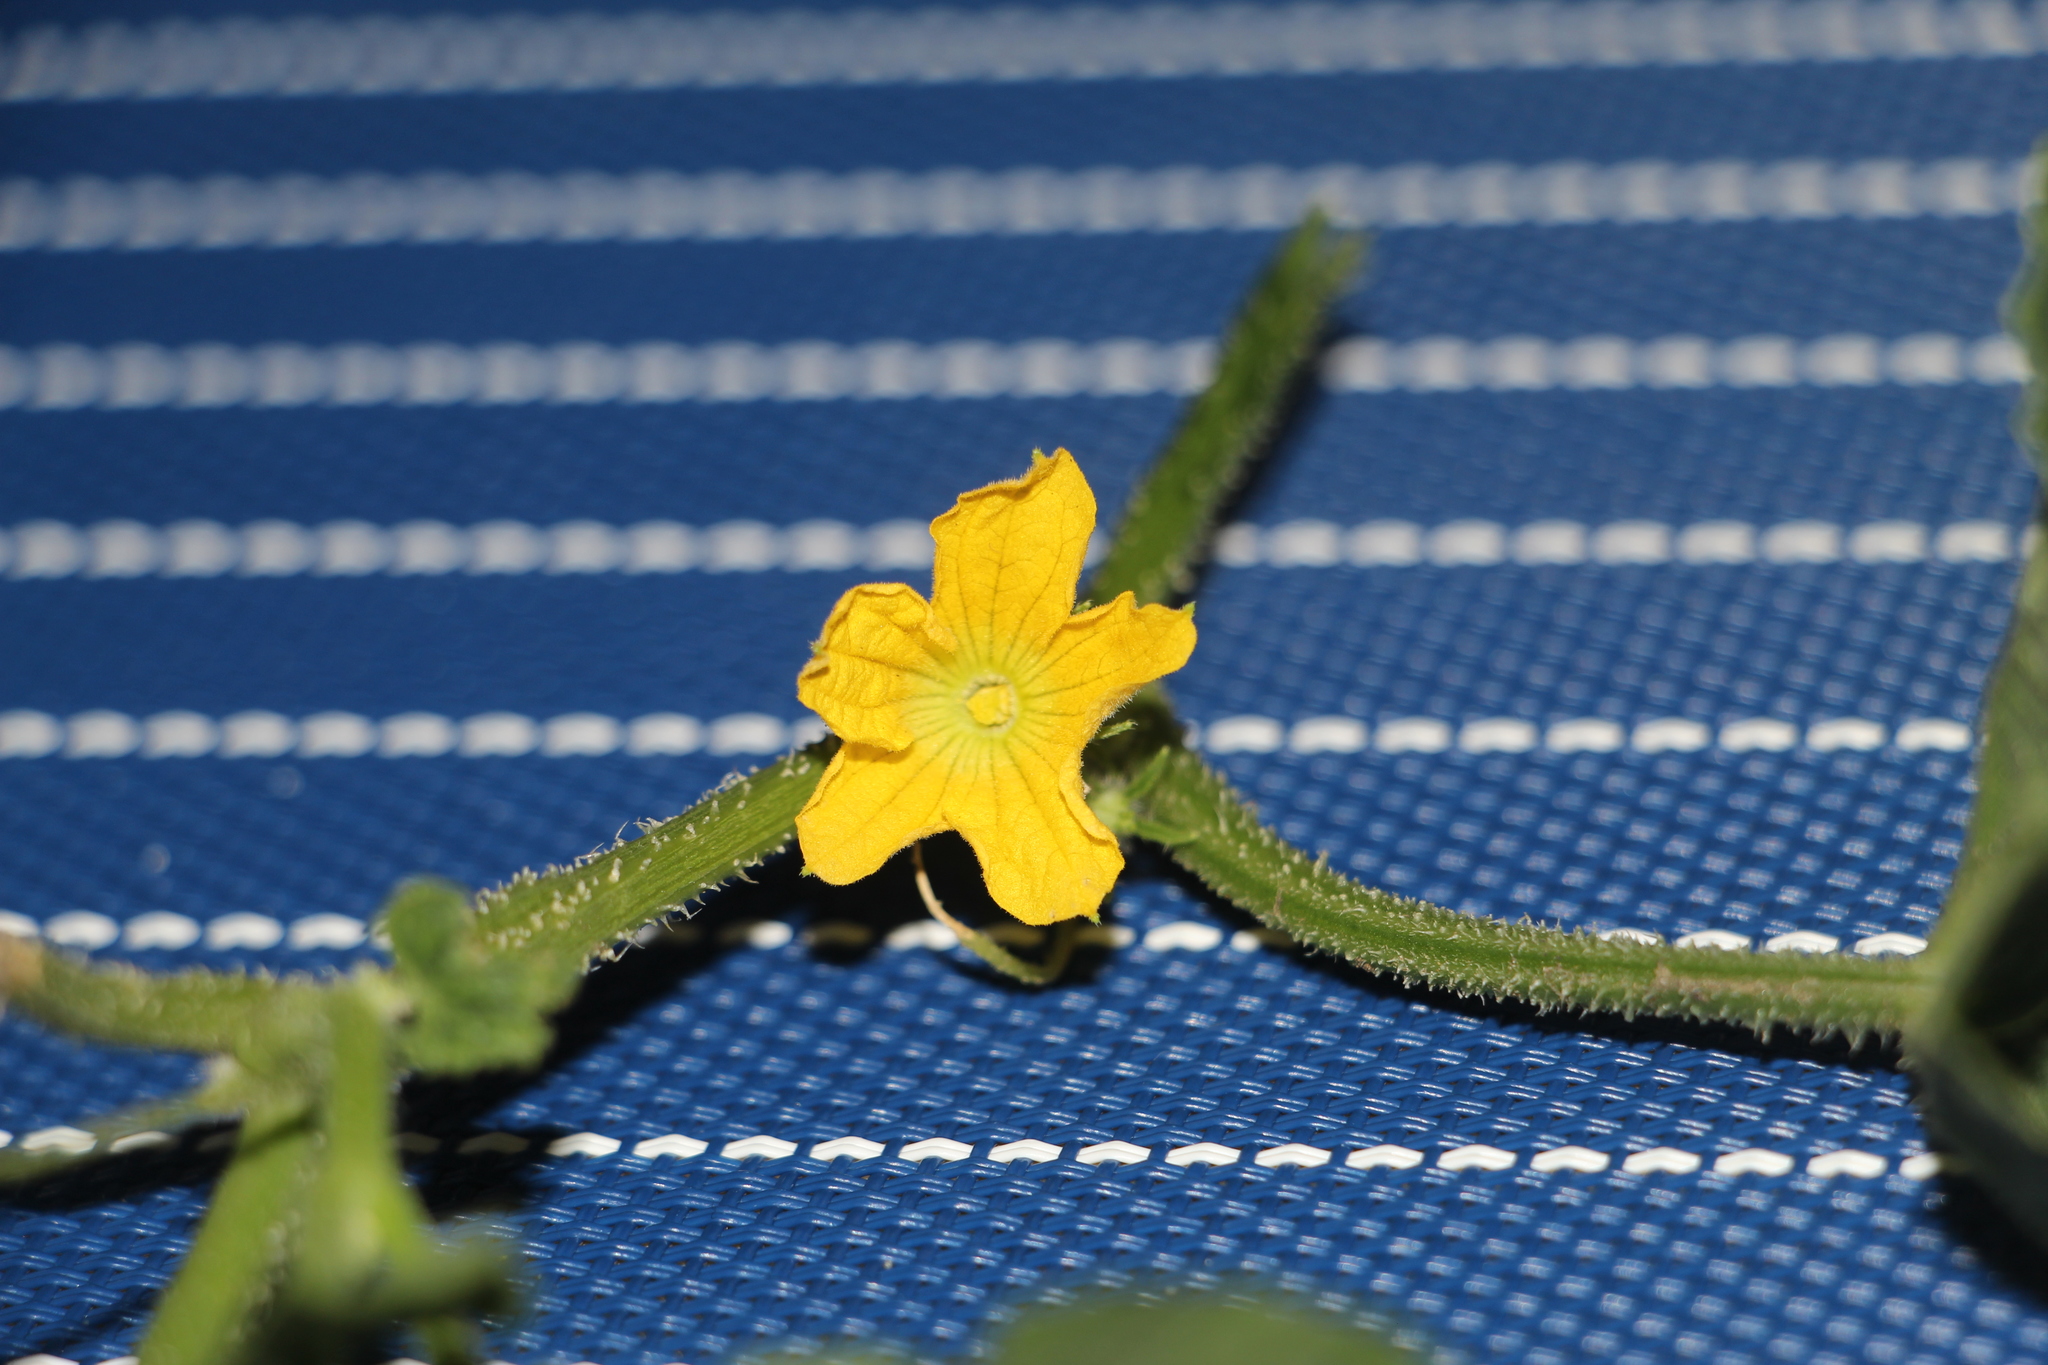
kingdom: Plantae
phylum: Tracheophyta
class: Magnoliopsida
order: Cucurbitales
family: Cucurbitaceae
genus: Cucumis
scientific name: Cucumis melo
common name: Melon
